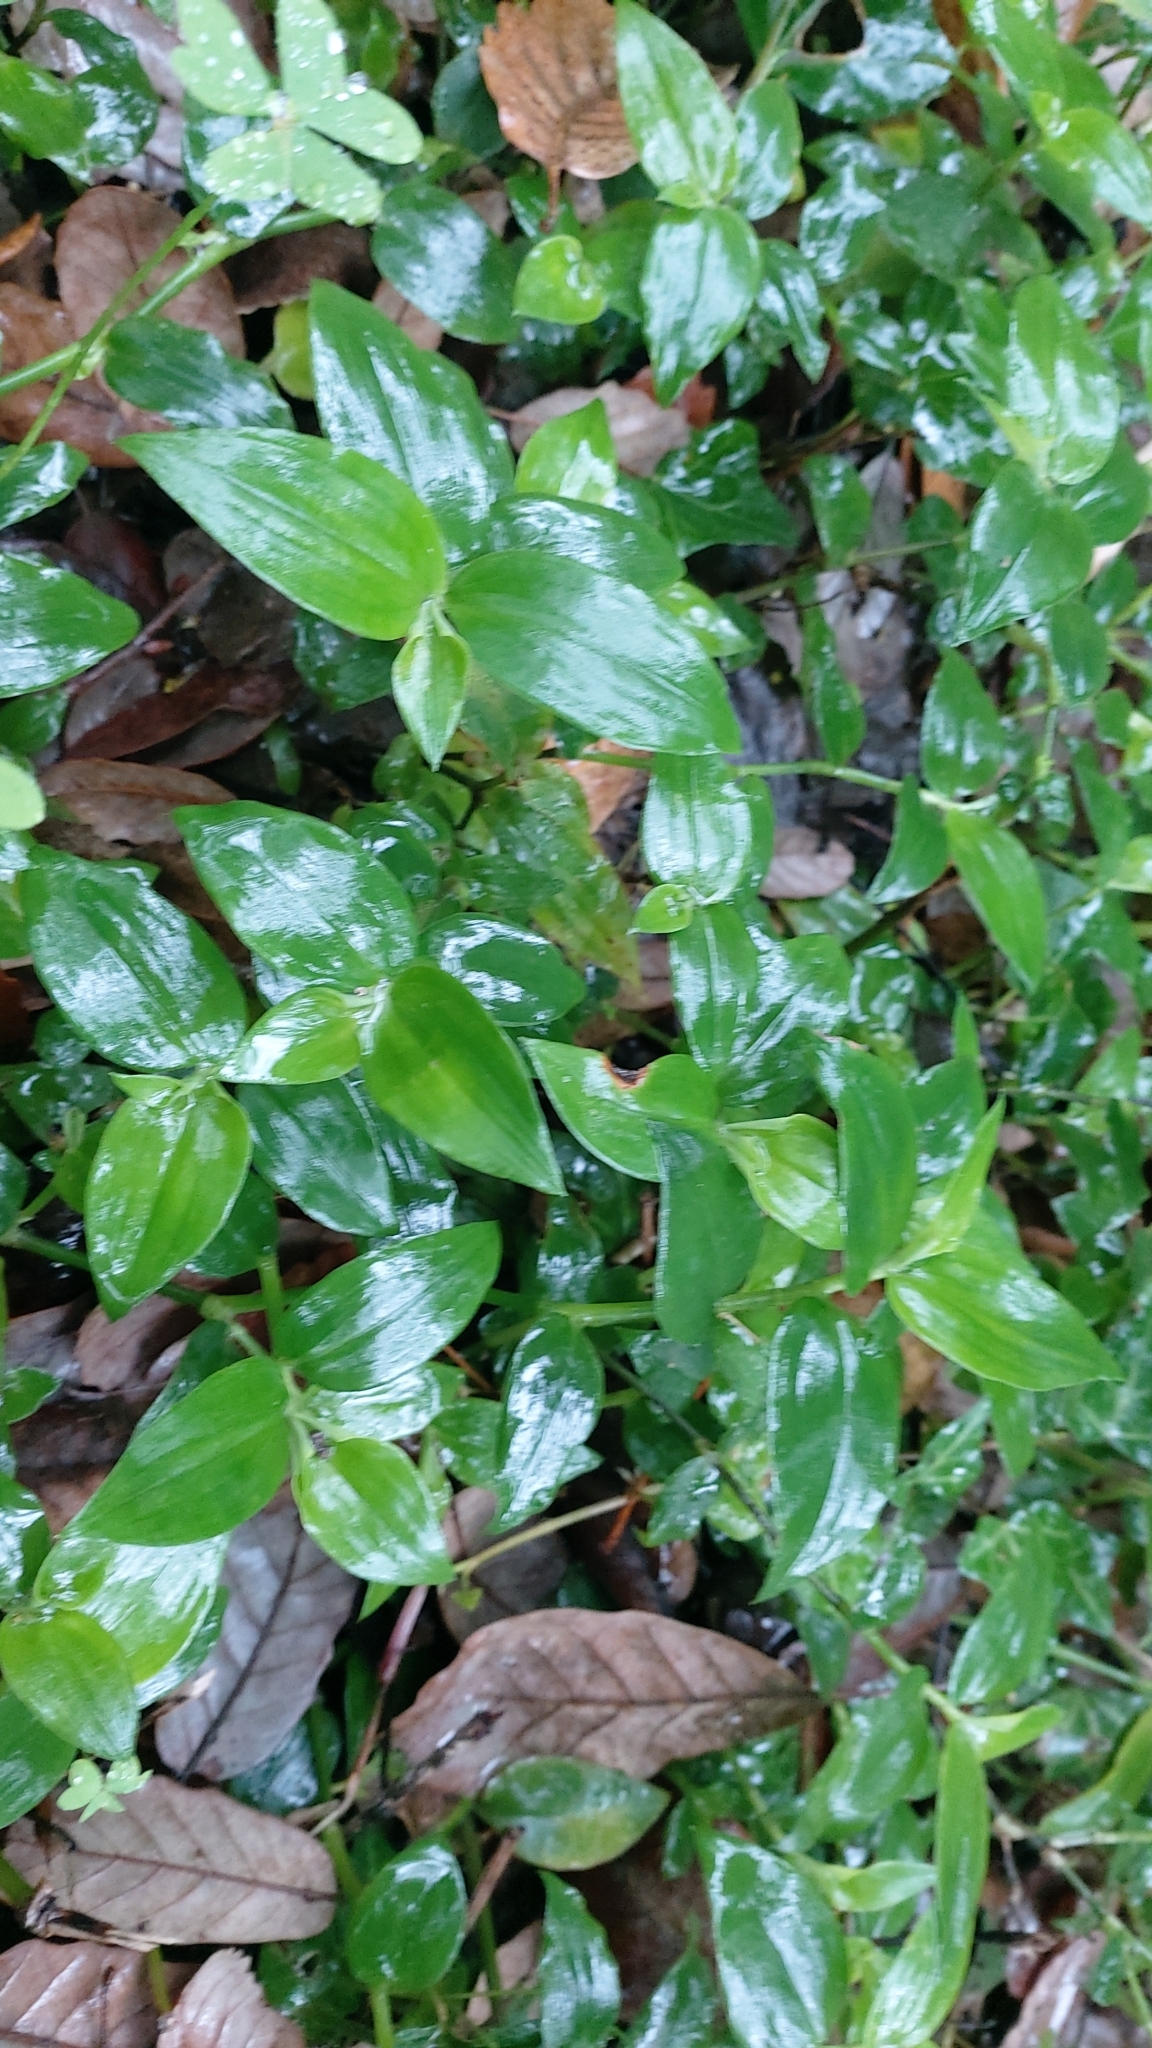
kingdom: Plantae
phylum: Tracheophyta
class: Liliopsida
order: Commelinales
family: Commelinaceae
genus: Tradescantia
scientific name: Tradescantia fluminensis
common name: Wandering-jew
